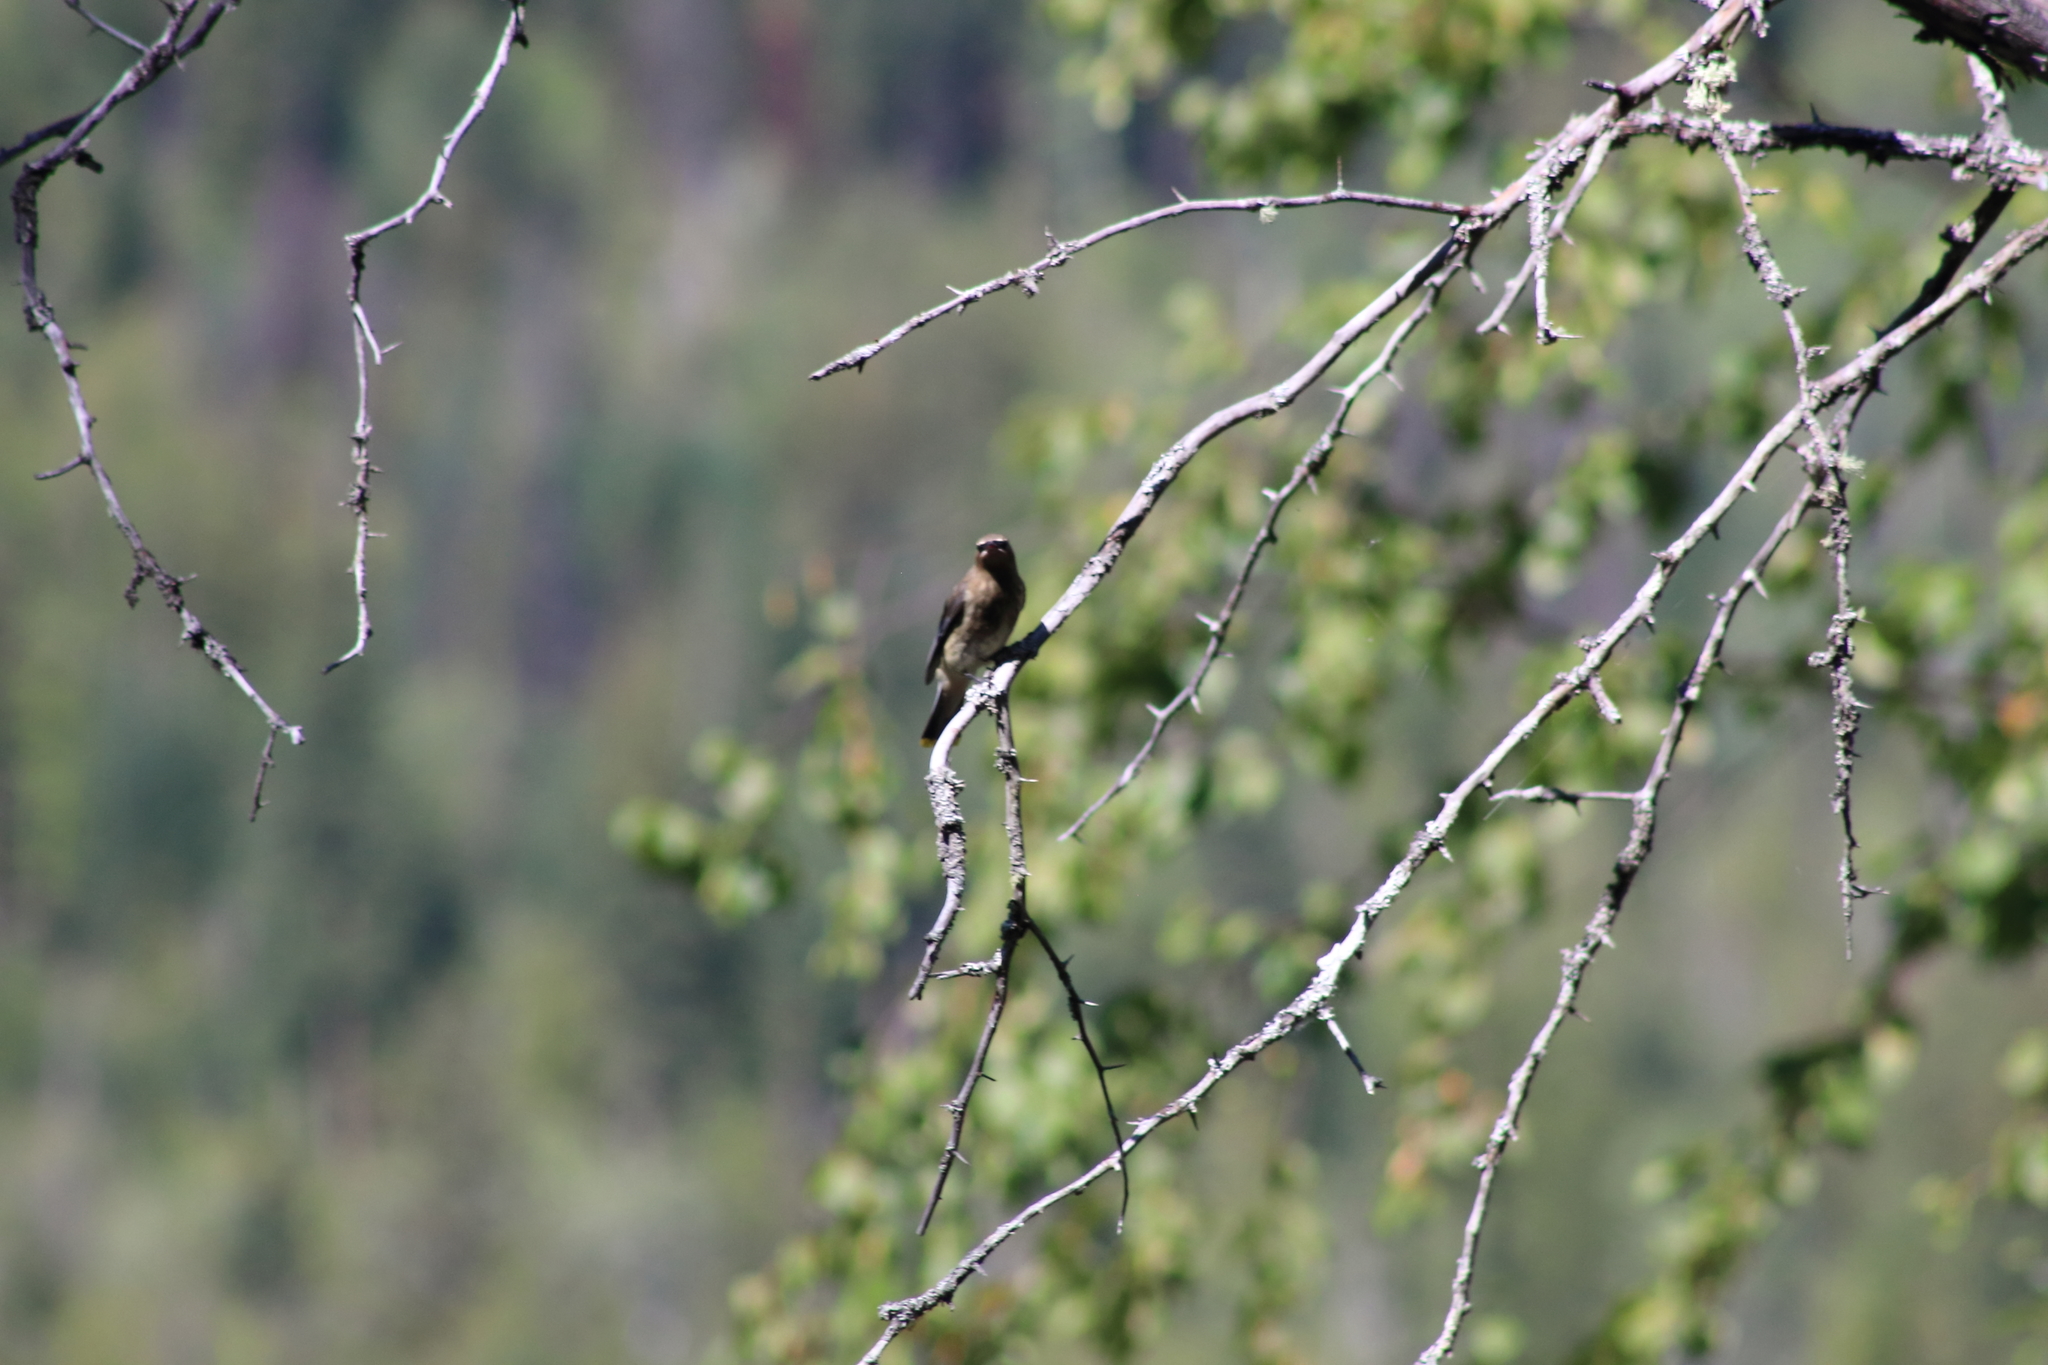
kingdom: Animalia
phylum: Chordata
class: Aves
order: Passeriformes
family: Bombycillidae
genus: Bombycilla
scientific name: Bombycilla cedrorum
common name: Cedar waxwing
